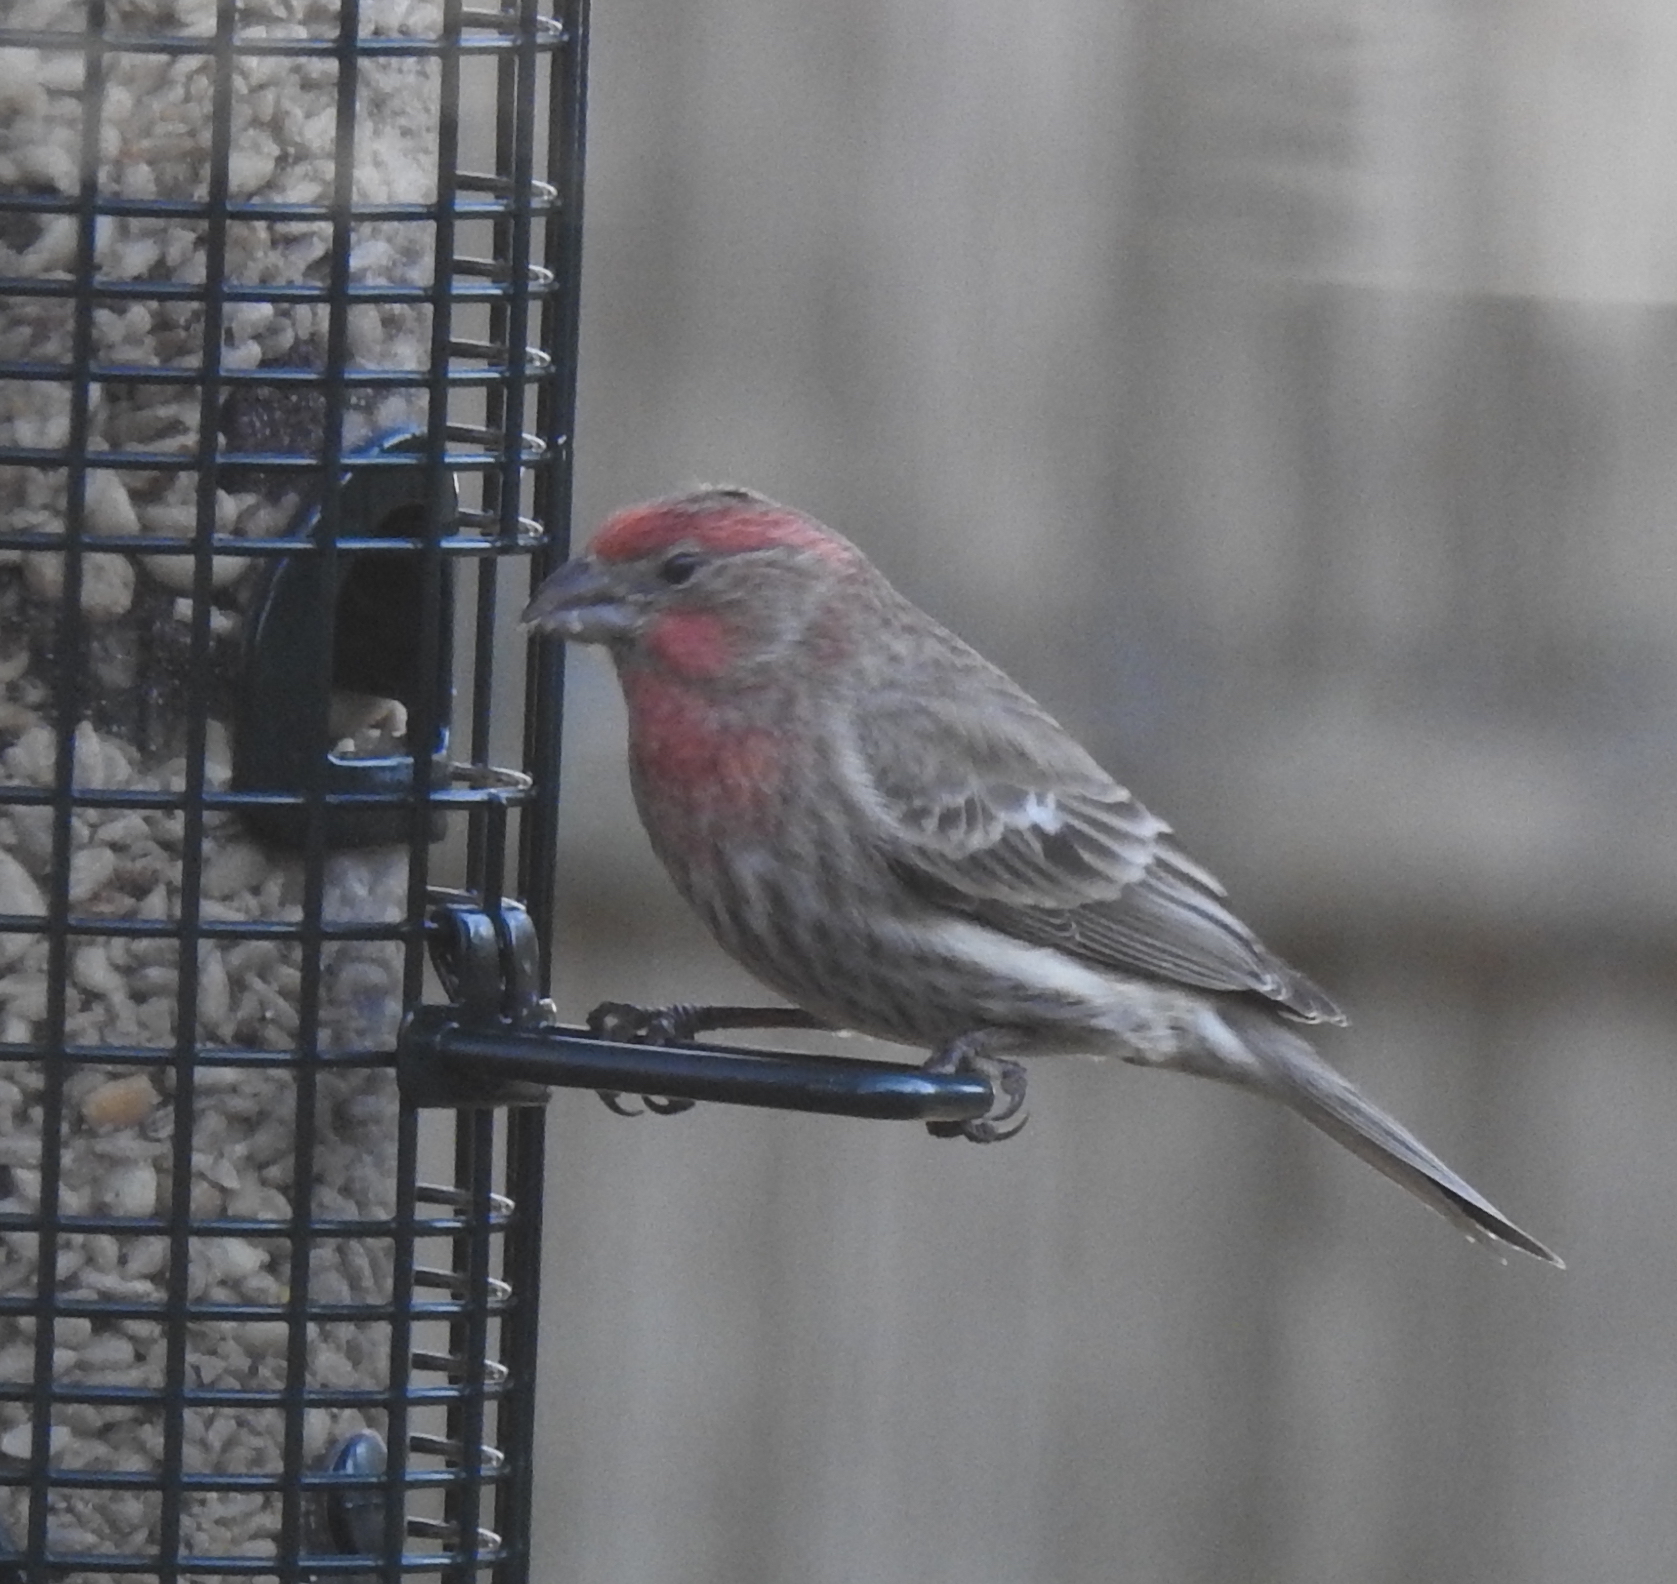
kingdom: Animalia
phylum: Chordata
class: Aves
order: Passeriformes
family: Fringillidae
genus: Haemorhous
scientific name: Haemorhous mexicanus
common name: House finch
